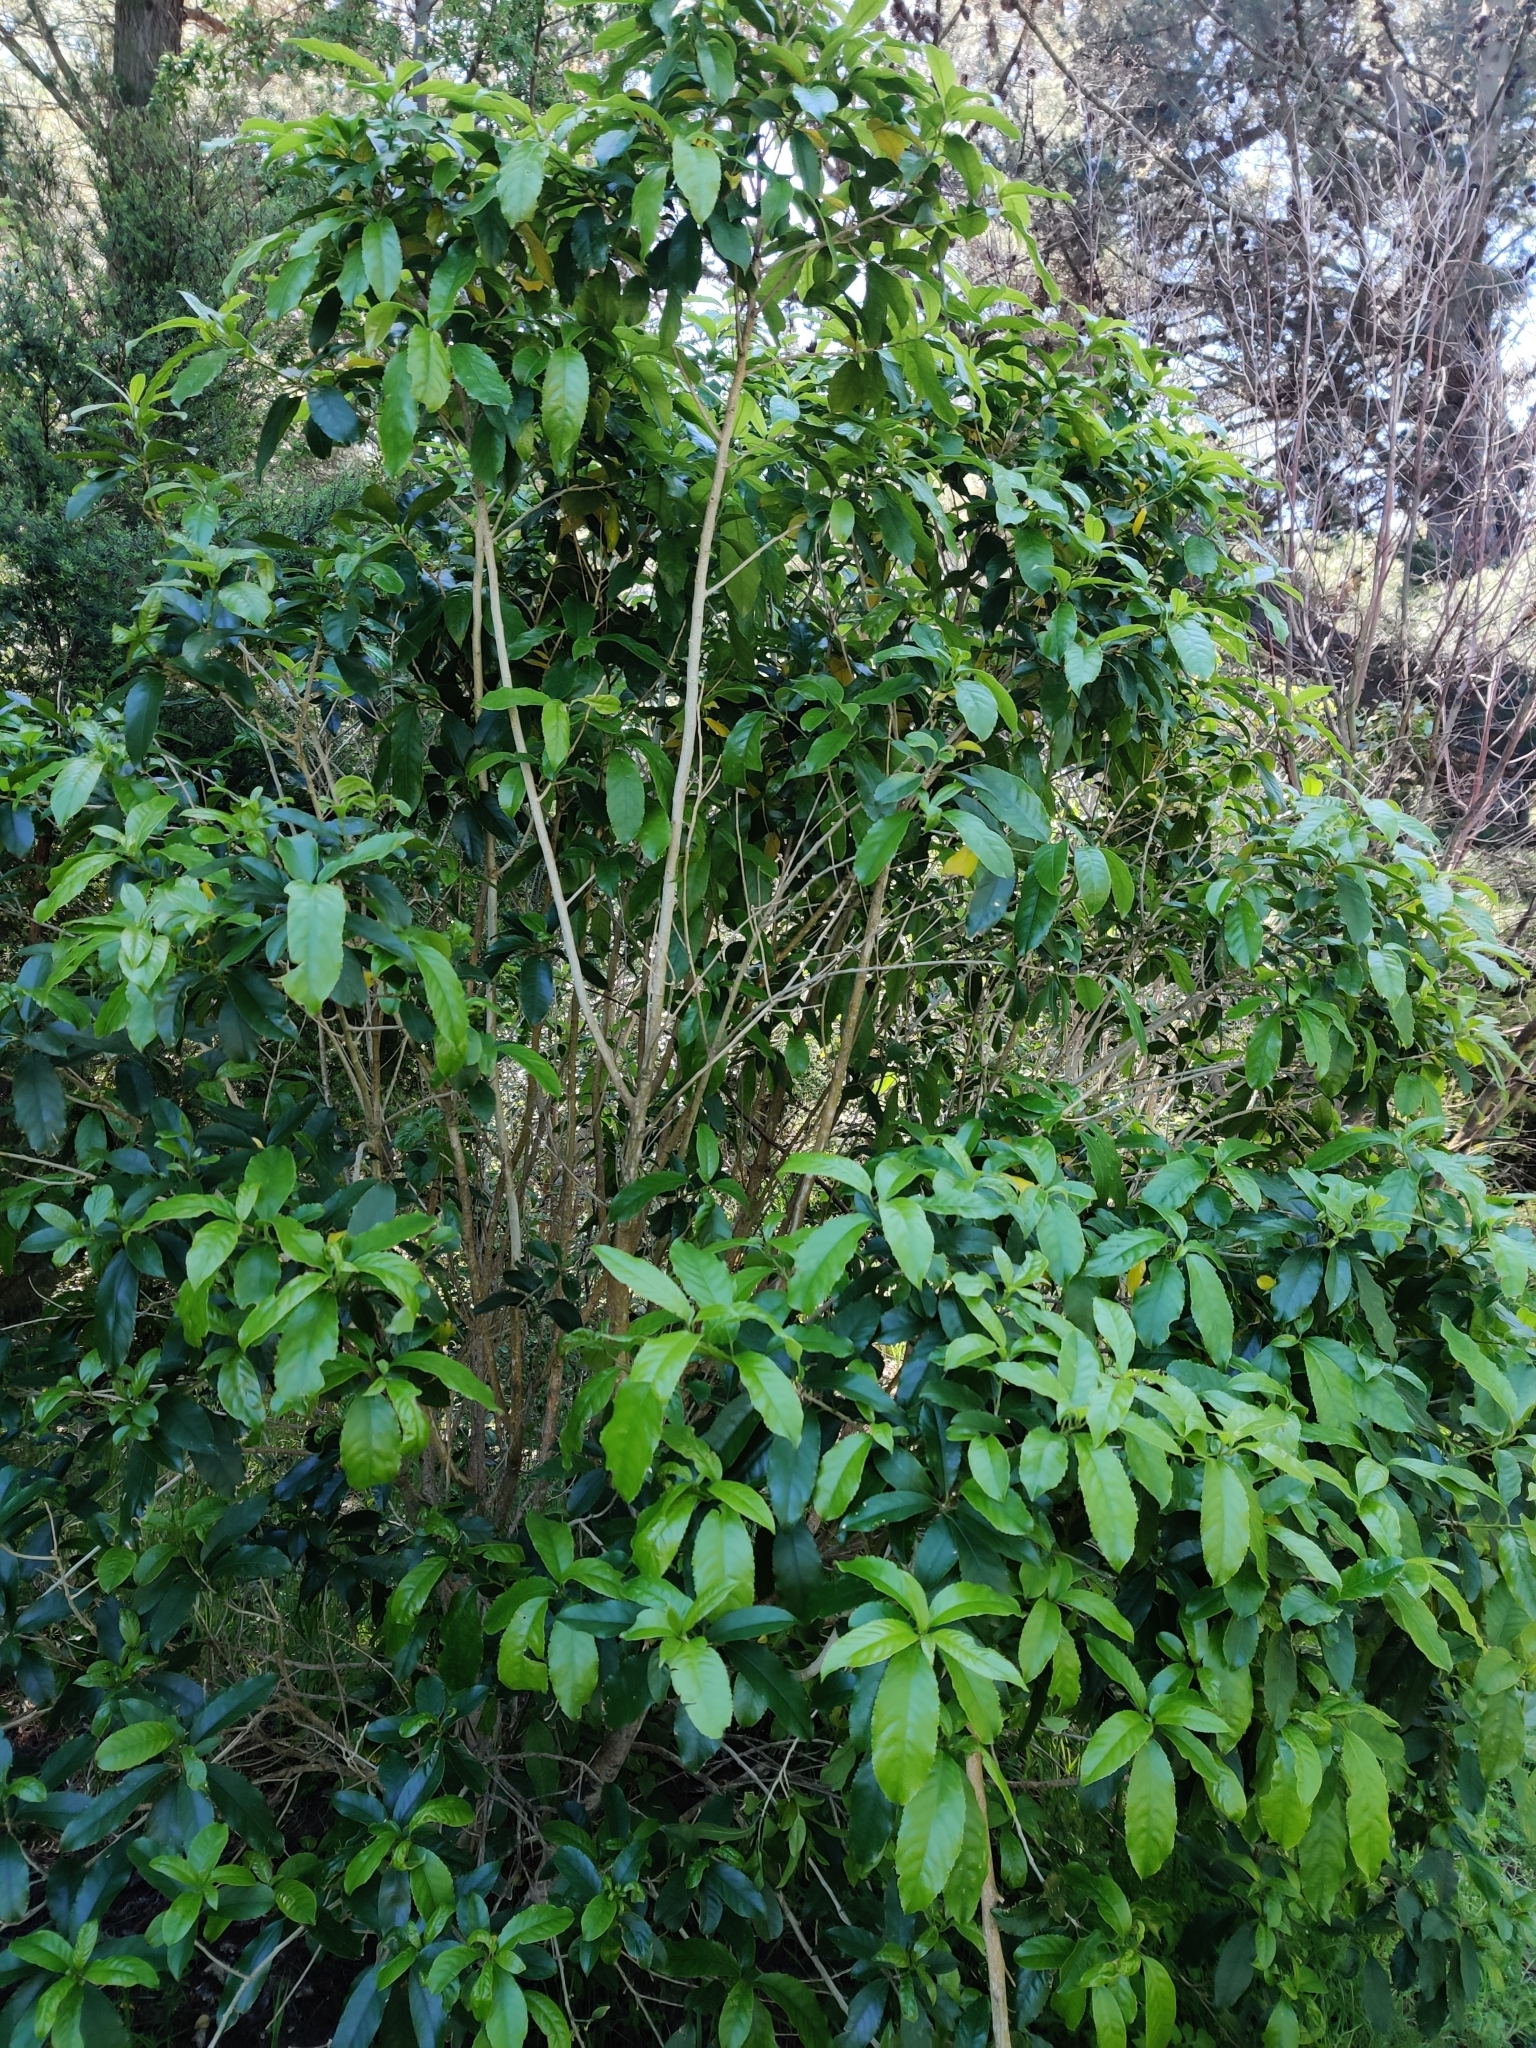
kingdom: Plantae
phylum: Tracheophyta
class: Magnoliopsida
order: Malpighiales
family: Violaceae
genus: Melicytus
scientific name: Melicytus ramiflorus
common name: Mahoe
